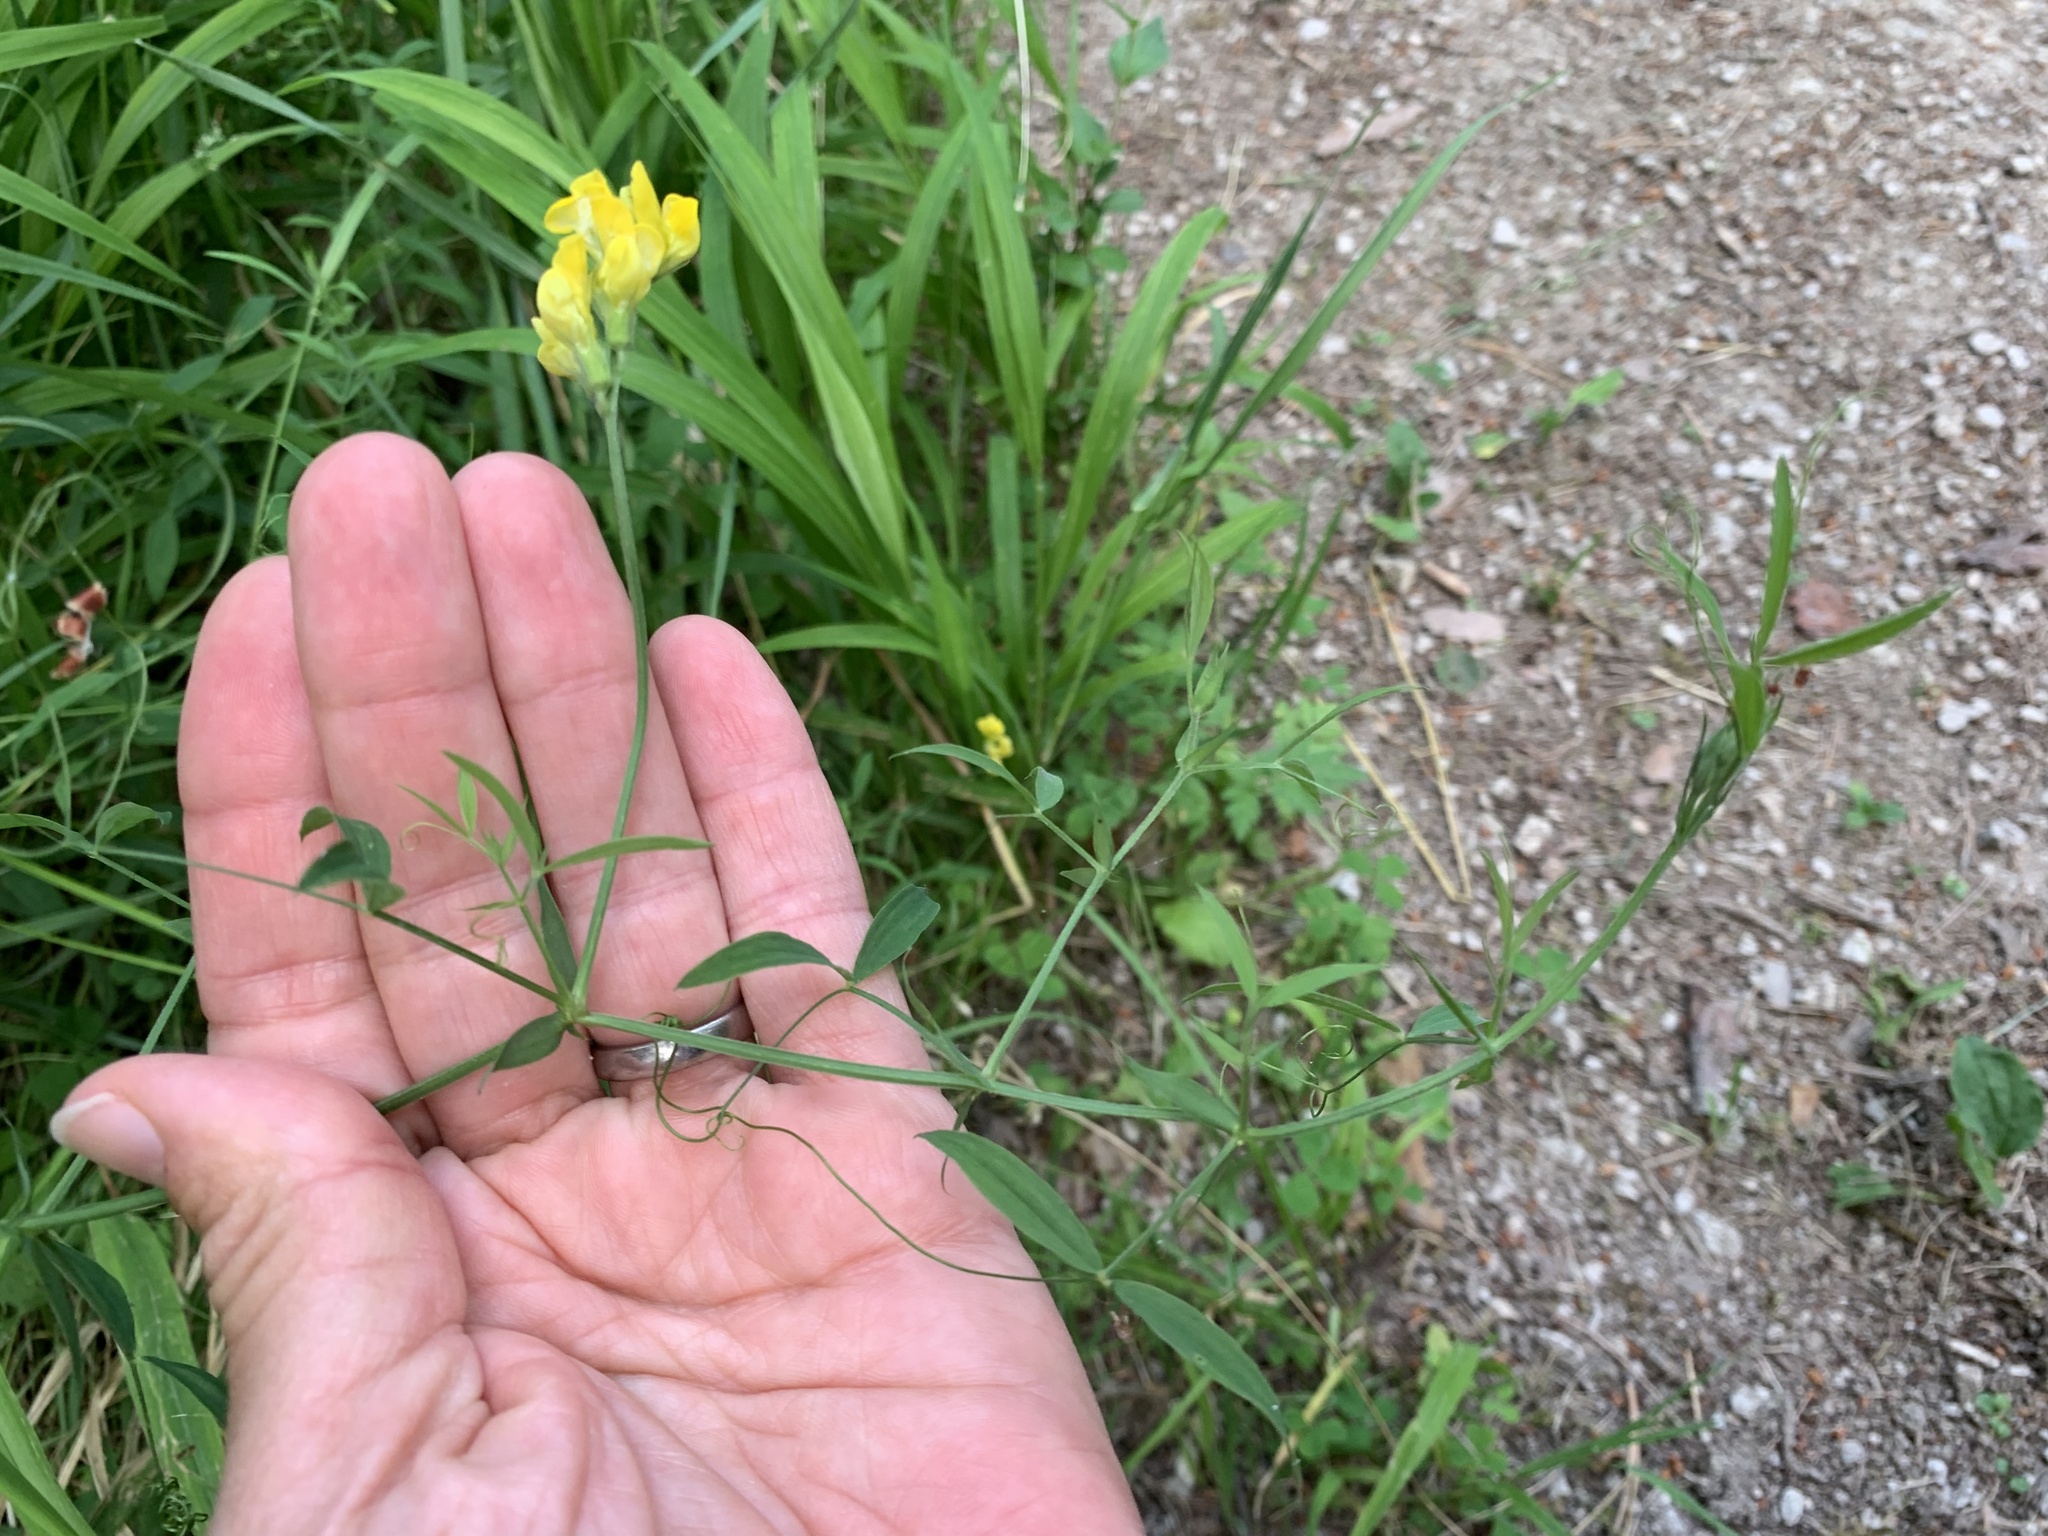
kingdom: Plantae
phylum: Tracheophyta
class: Magnoliopsida
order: Fabales
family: Fabaceae
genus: Lathyrus
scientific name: Lathyrus pratensis
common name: Meadow vetchling
